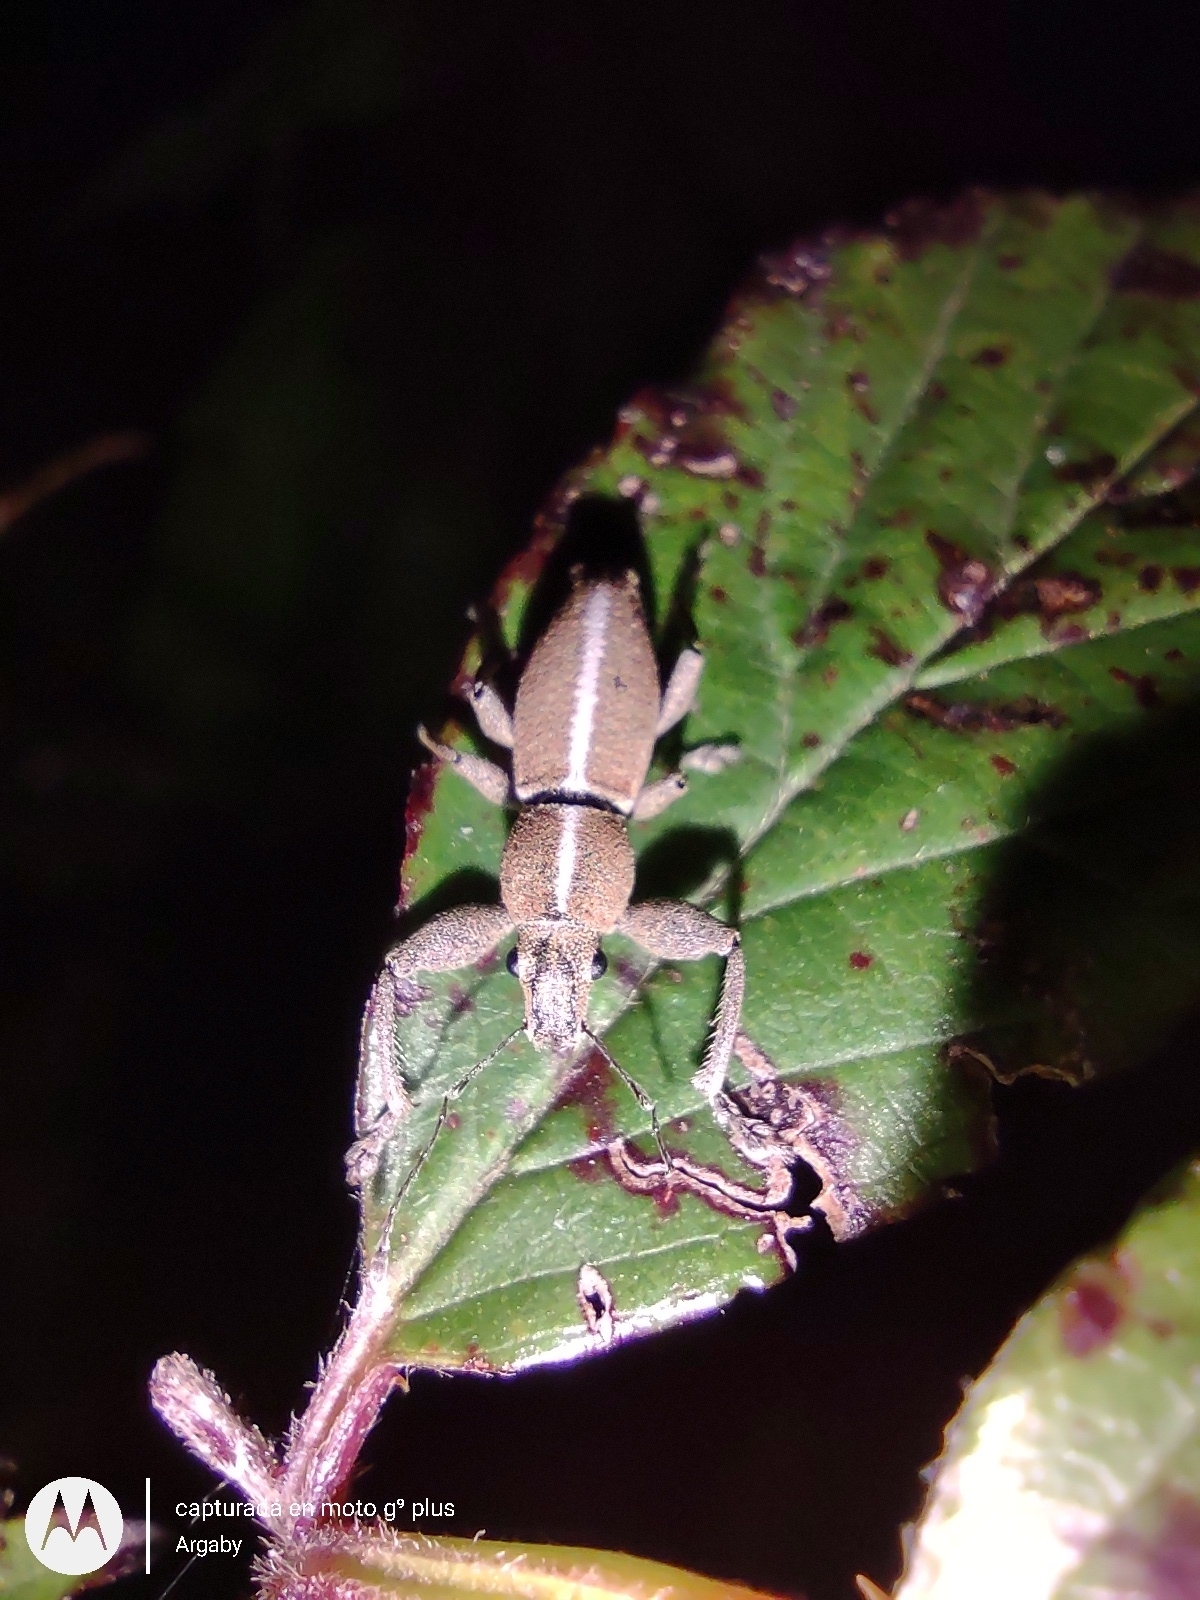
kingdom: Animalia
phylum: Arthropoda
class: Insecta
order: Coleoptera
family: Curculionidae
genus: Naupactus
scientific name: Naupactus dissimulator
